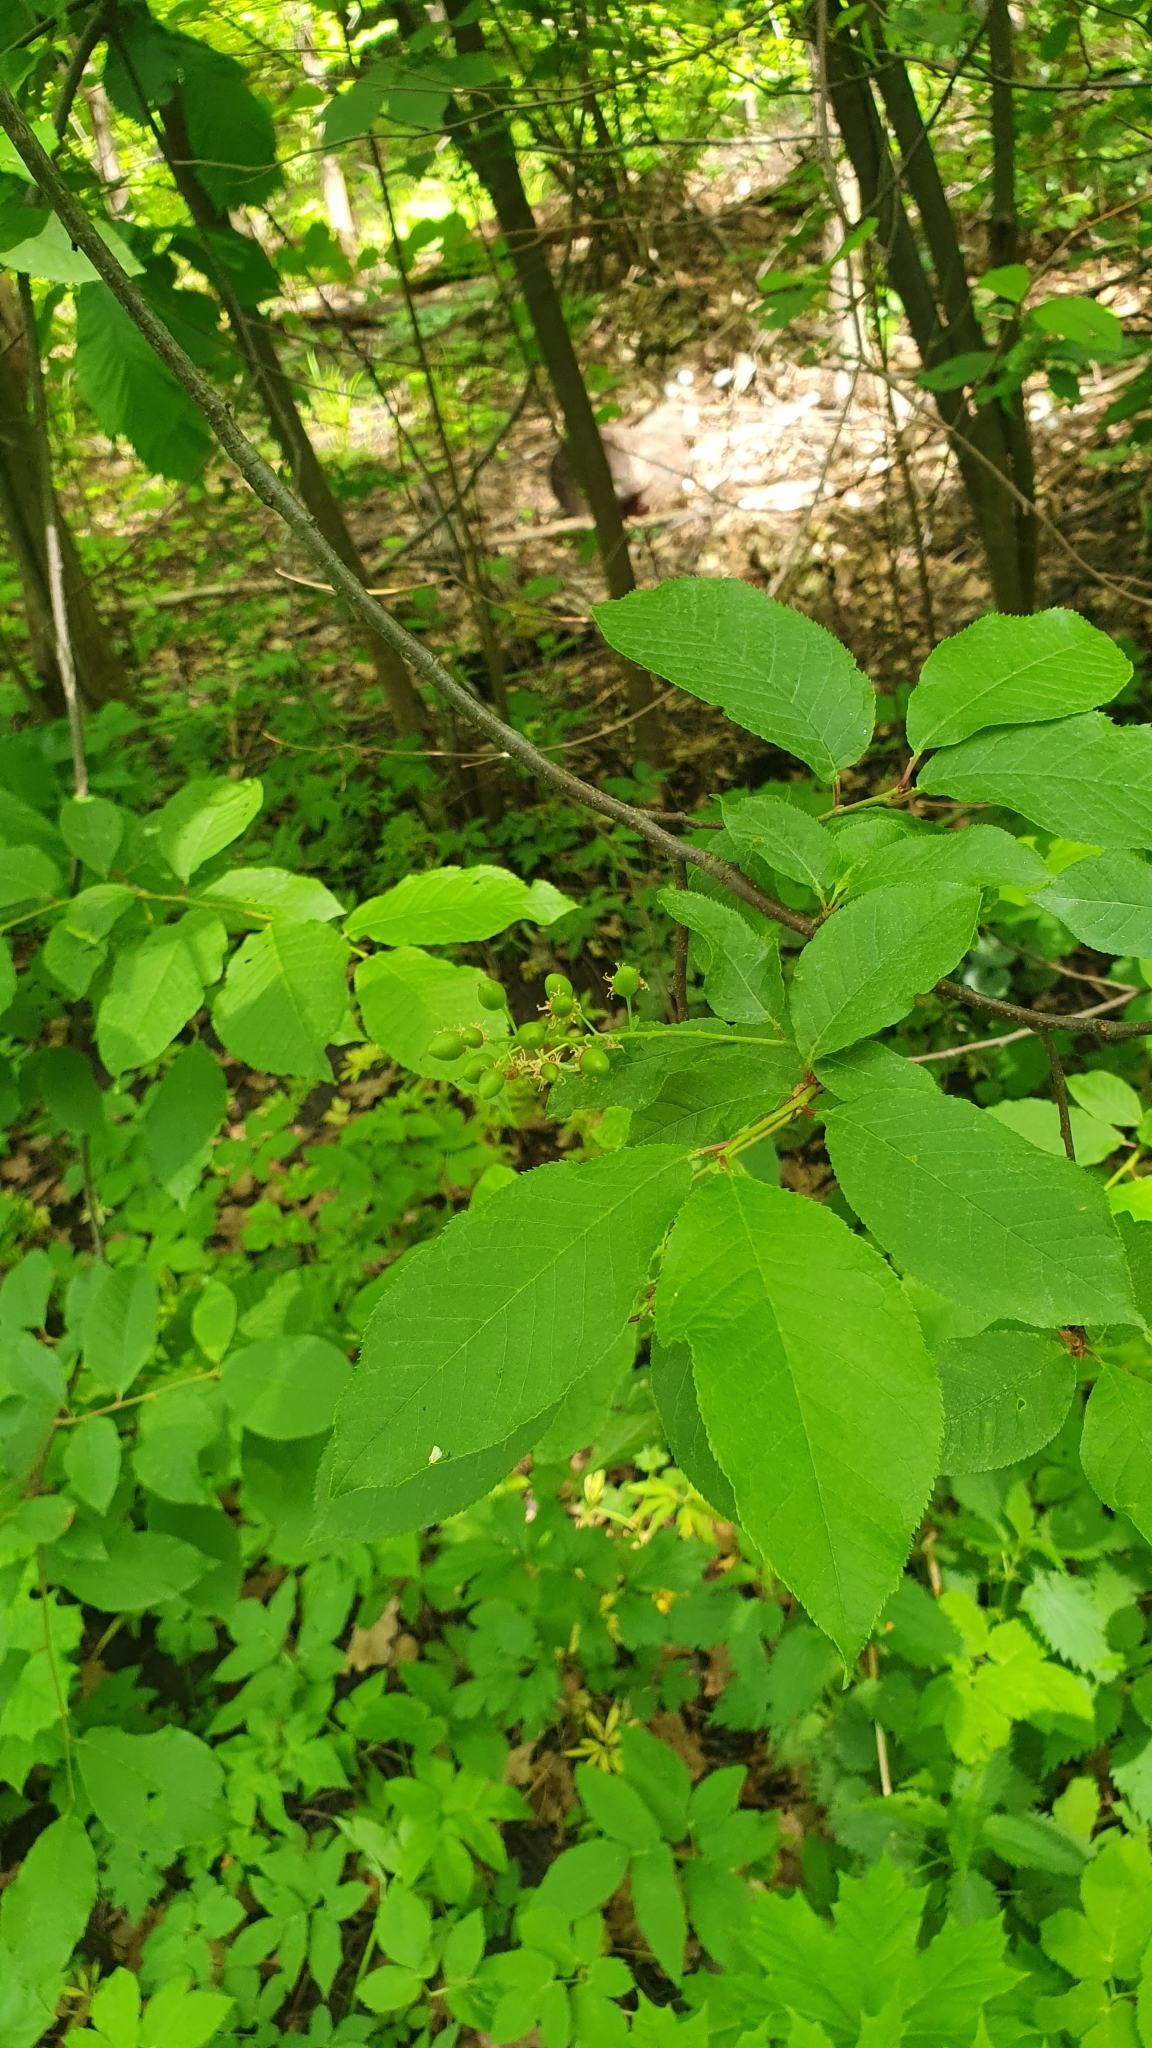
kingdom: Plantae
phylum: Tracheophyta
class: Magnoliopsida
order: Rosales
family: Rosaceae
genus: Prunus
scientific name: Prunus padus
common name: Bird cherry
